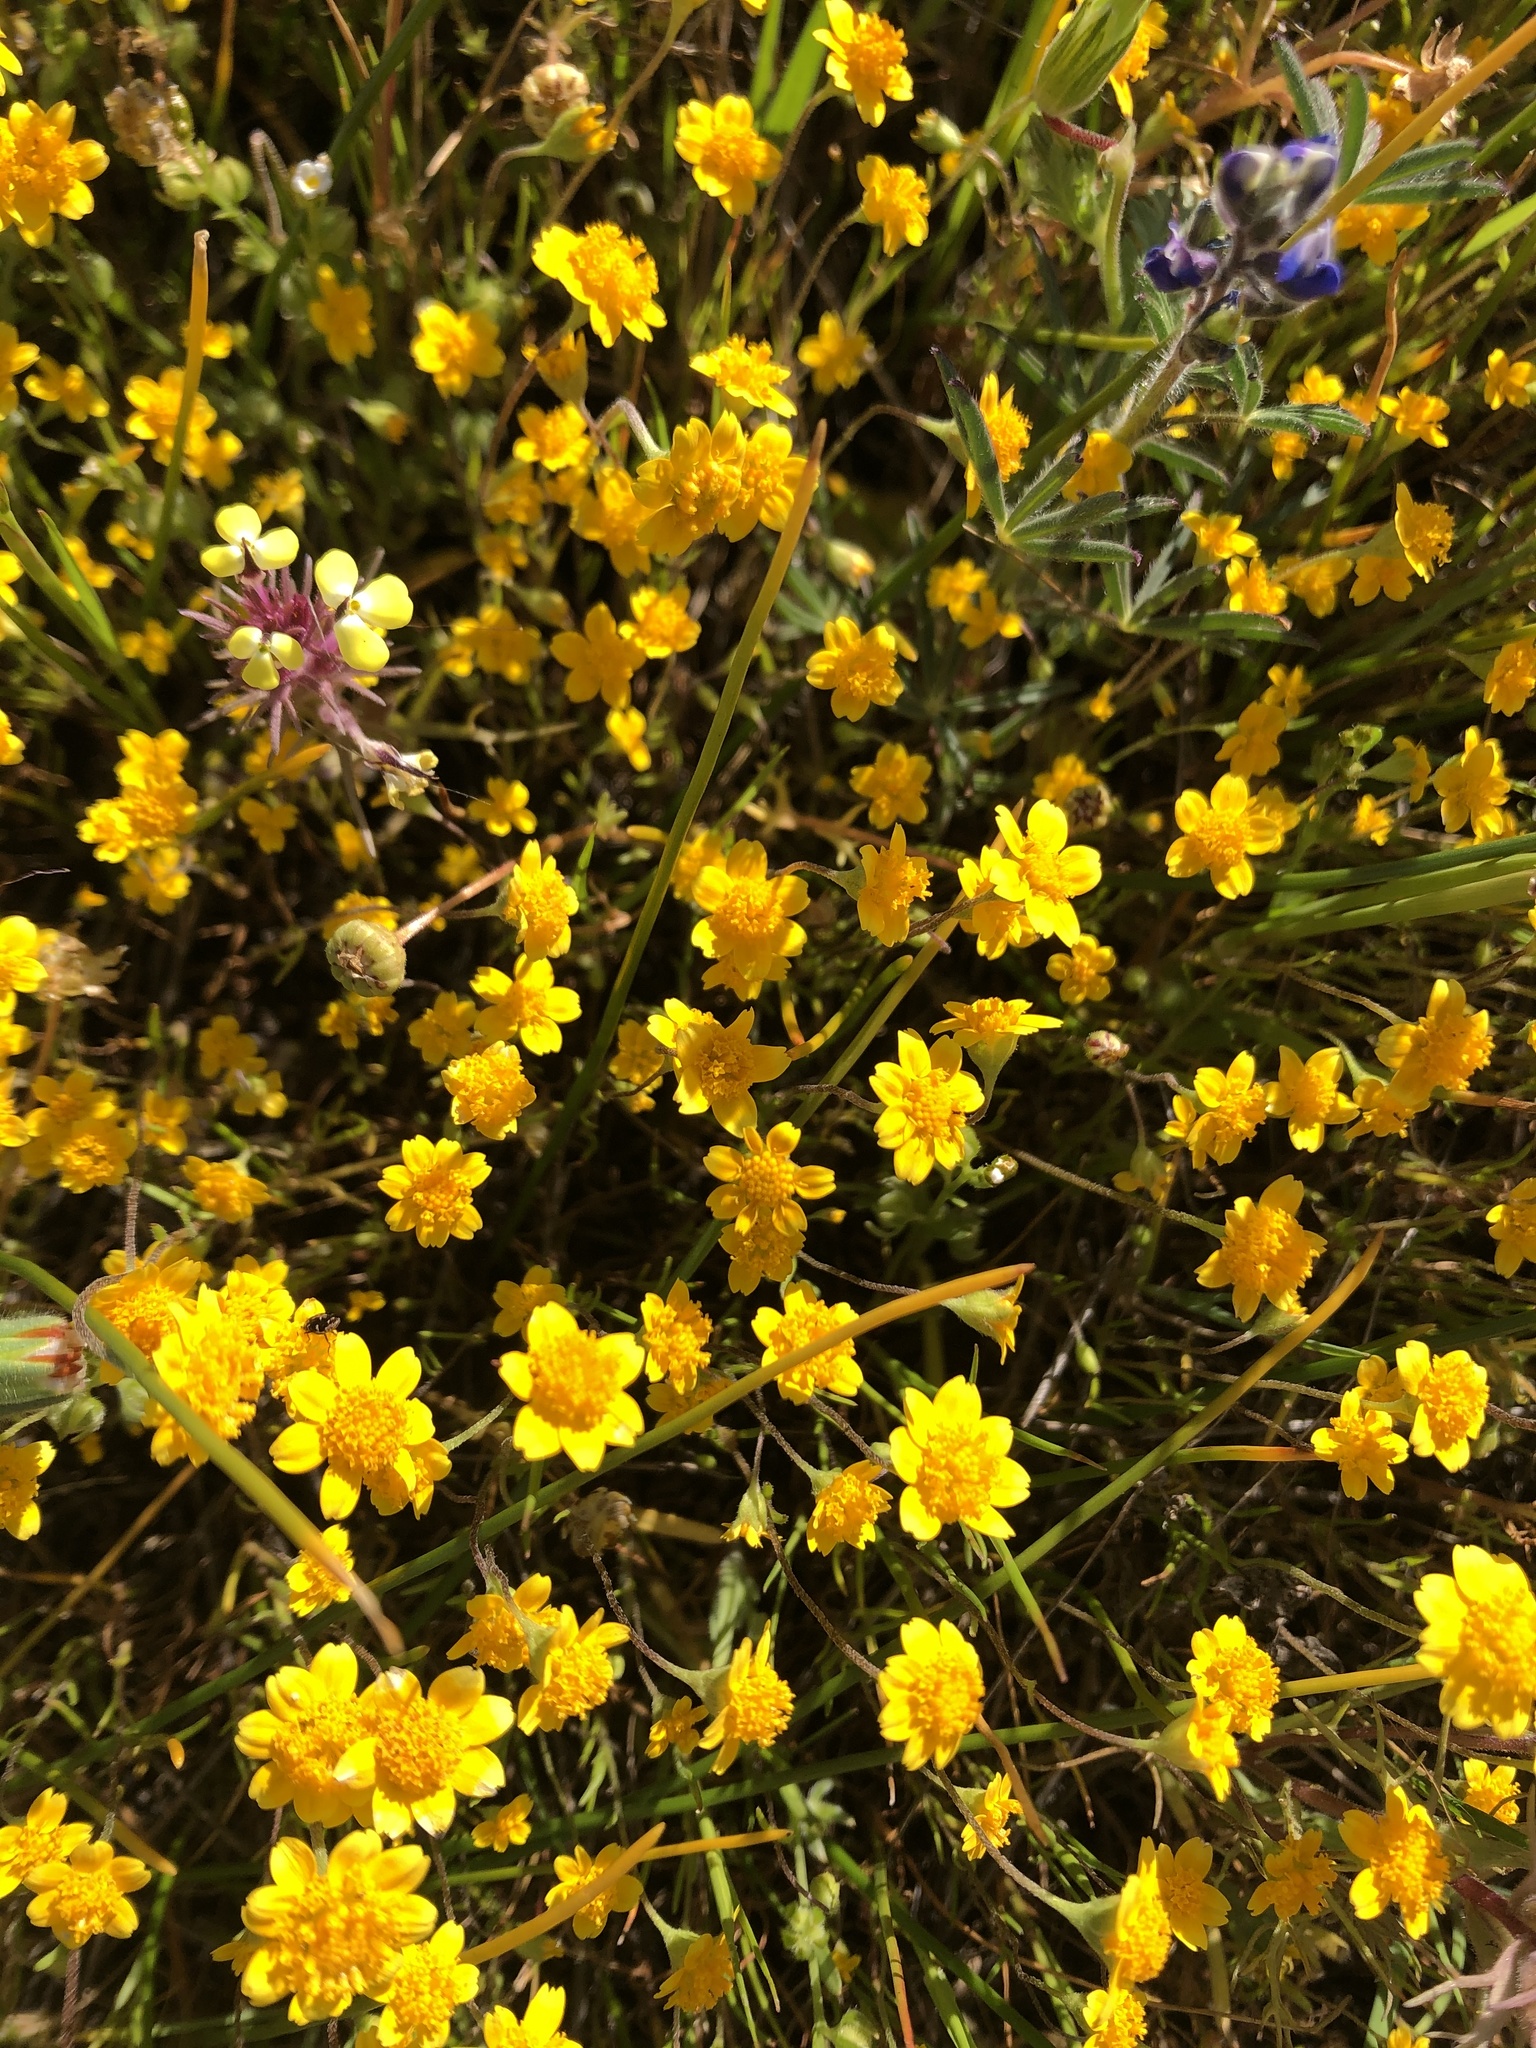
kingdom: Plantae
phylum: Tracheophyta
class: Magnoliopsida
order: Asterales
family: Asteraceae
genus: Lasthenia
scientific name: Lasthenia californica
